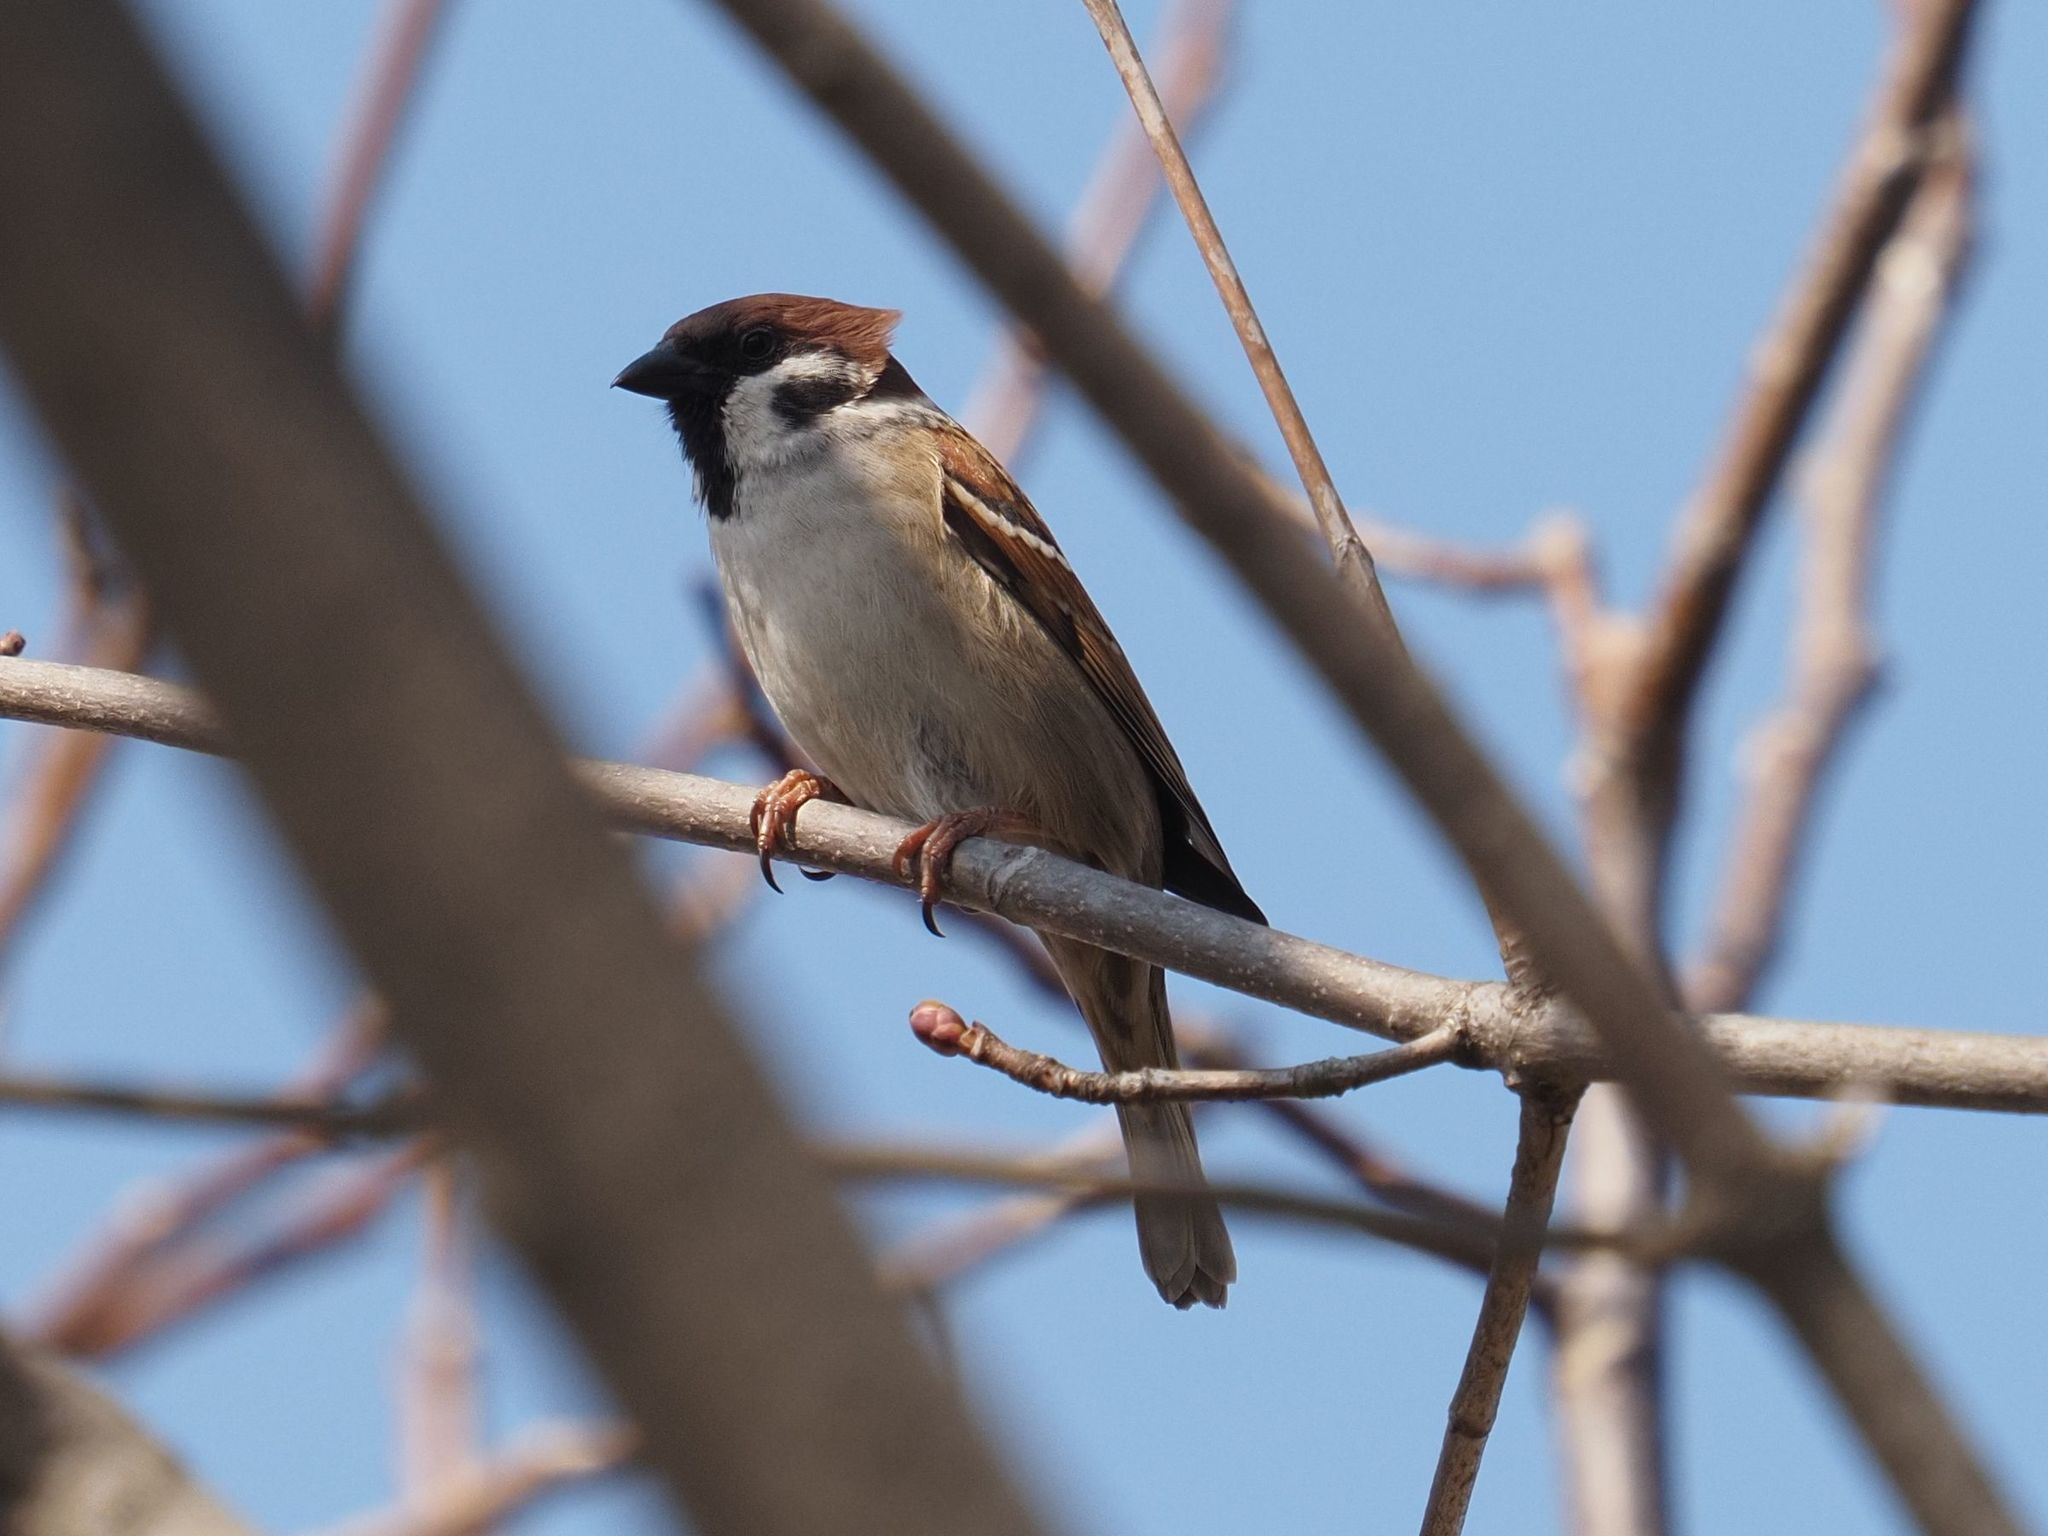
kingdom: Animalia
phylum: Chordata
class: Aves
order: Passeriformes
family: Passeridae
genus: Passer
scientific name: Passer montanus
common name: Eurasian tree sparrow
